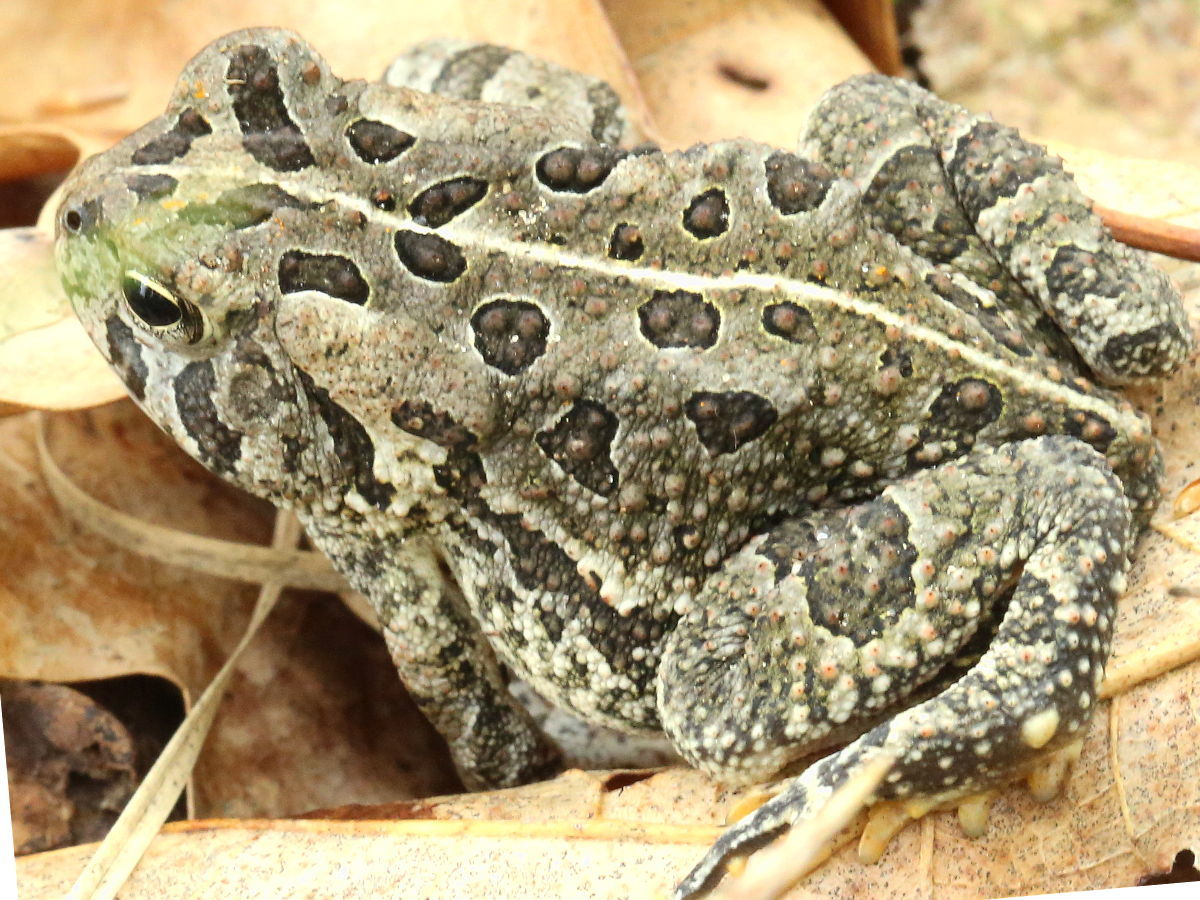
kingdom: Animalia
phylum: Chordata
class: Amphibia
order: Anura
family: Bufonidae
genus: Anaxyrus
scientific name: Anaxyrus fowleri
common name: Fowler's toad
